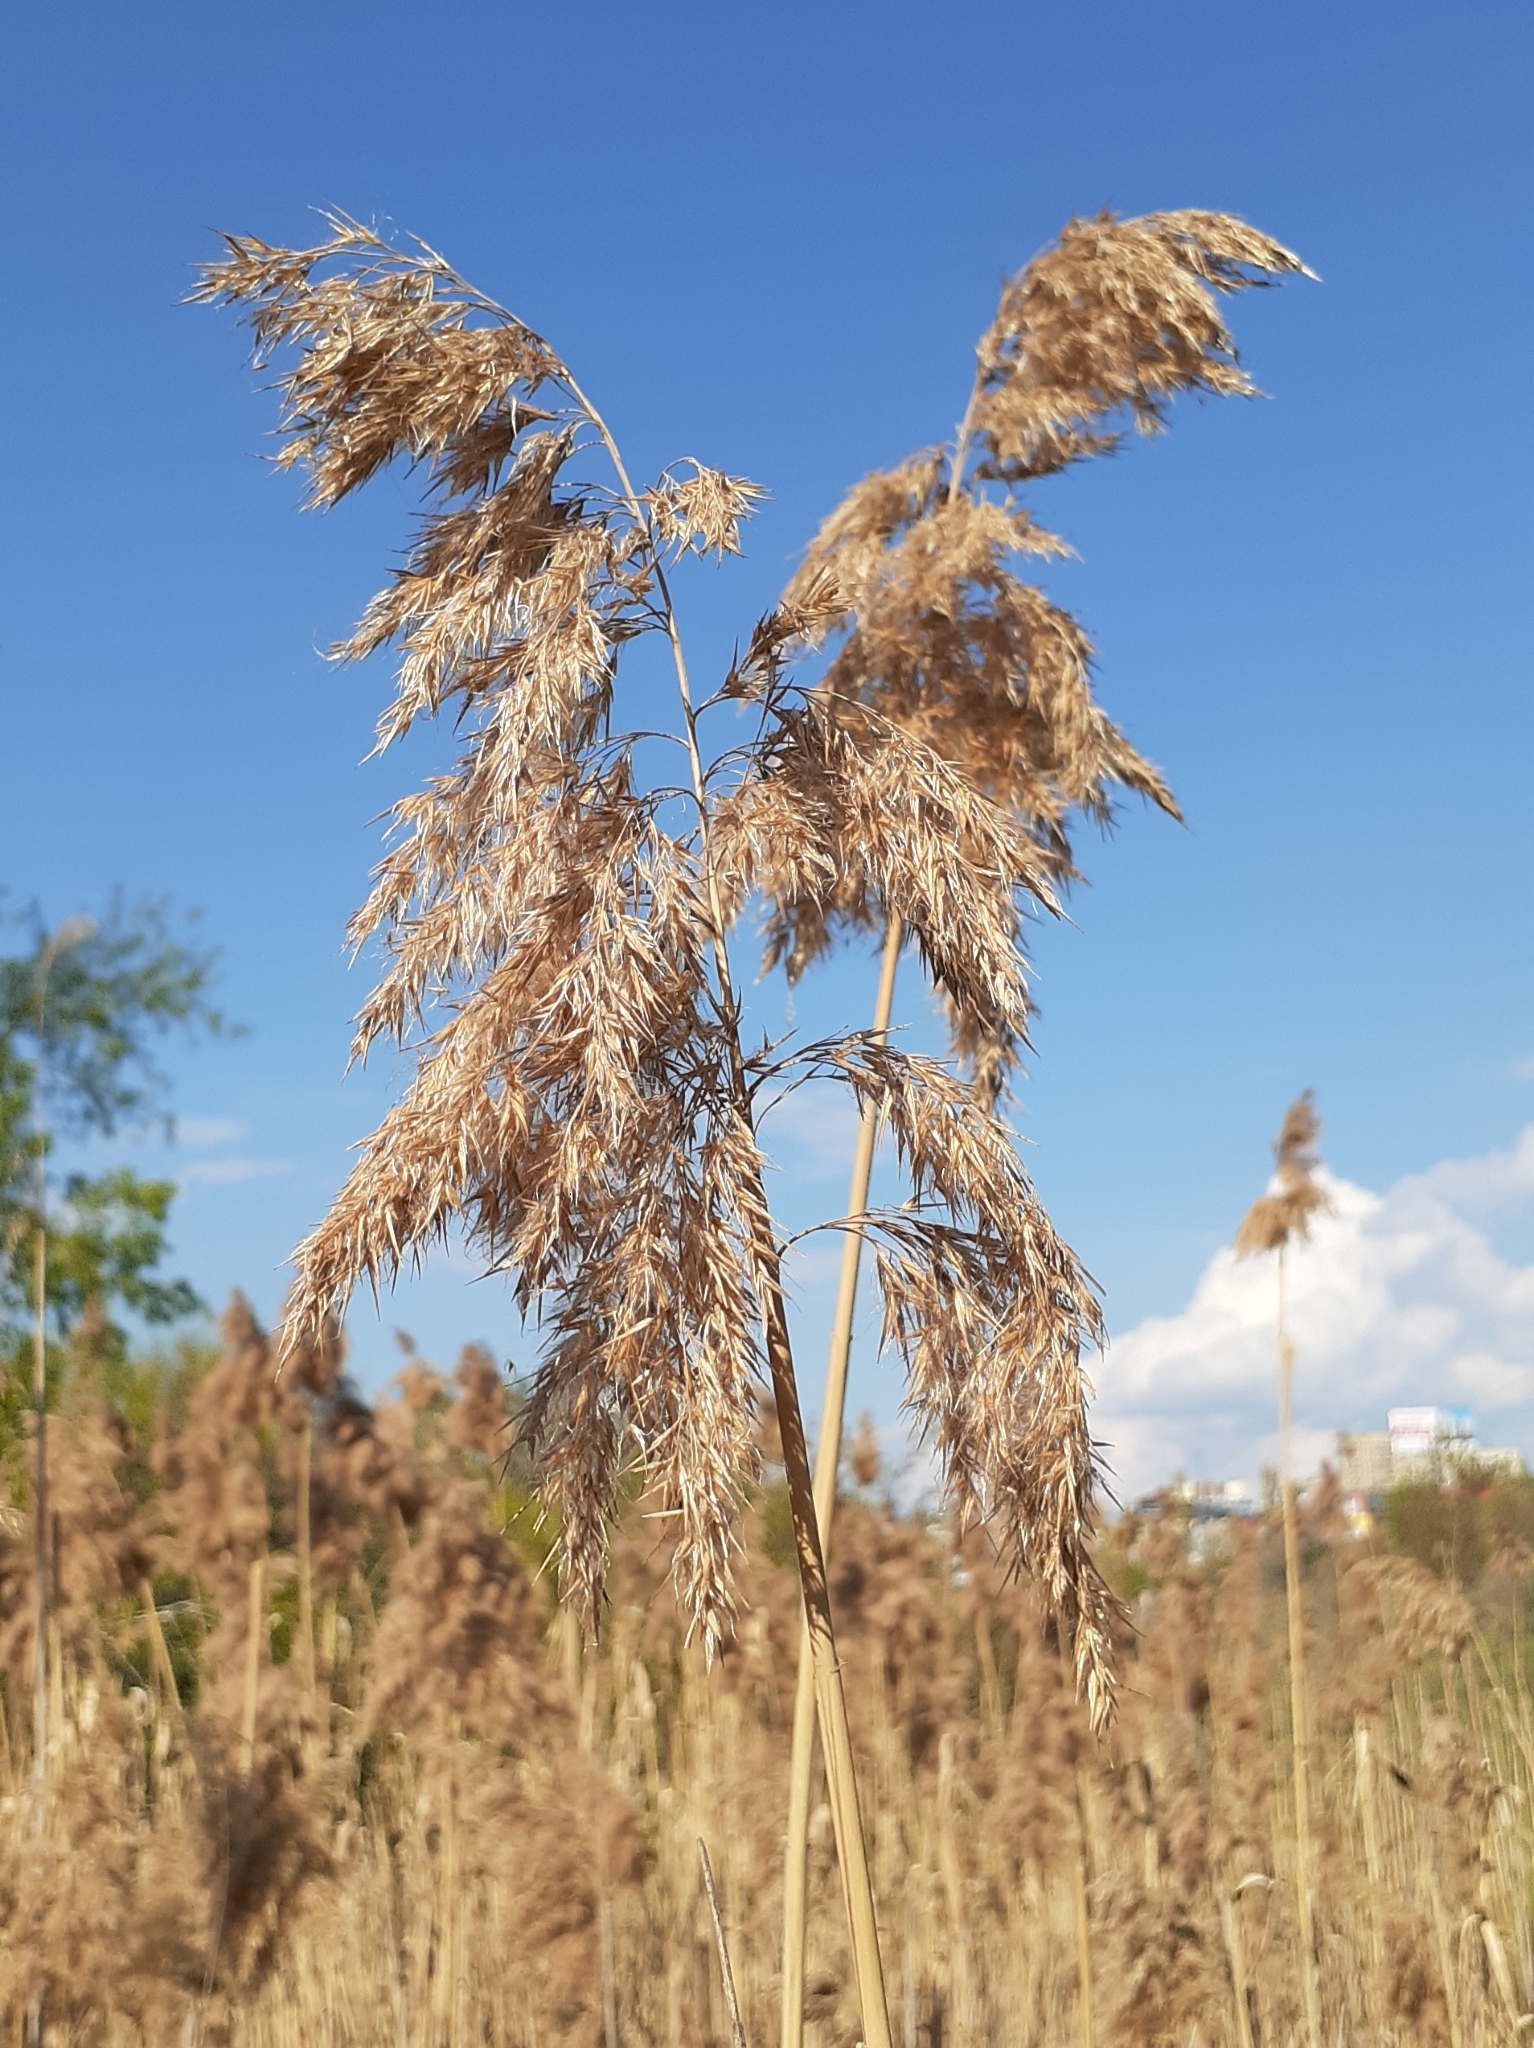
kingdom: Plantae
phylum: Tracheophyta
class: Liliopsida
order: Poales
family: Poaceae
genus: Phragmites
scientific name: Phragmites australis
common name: Common reed
